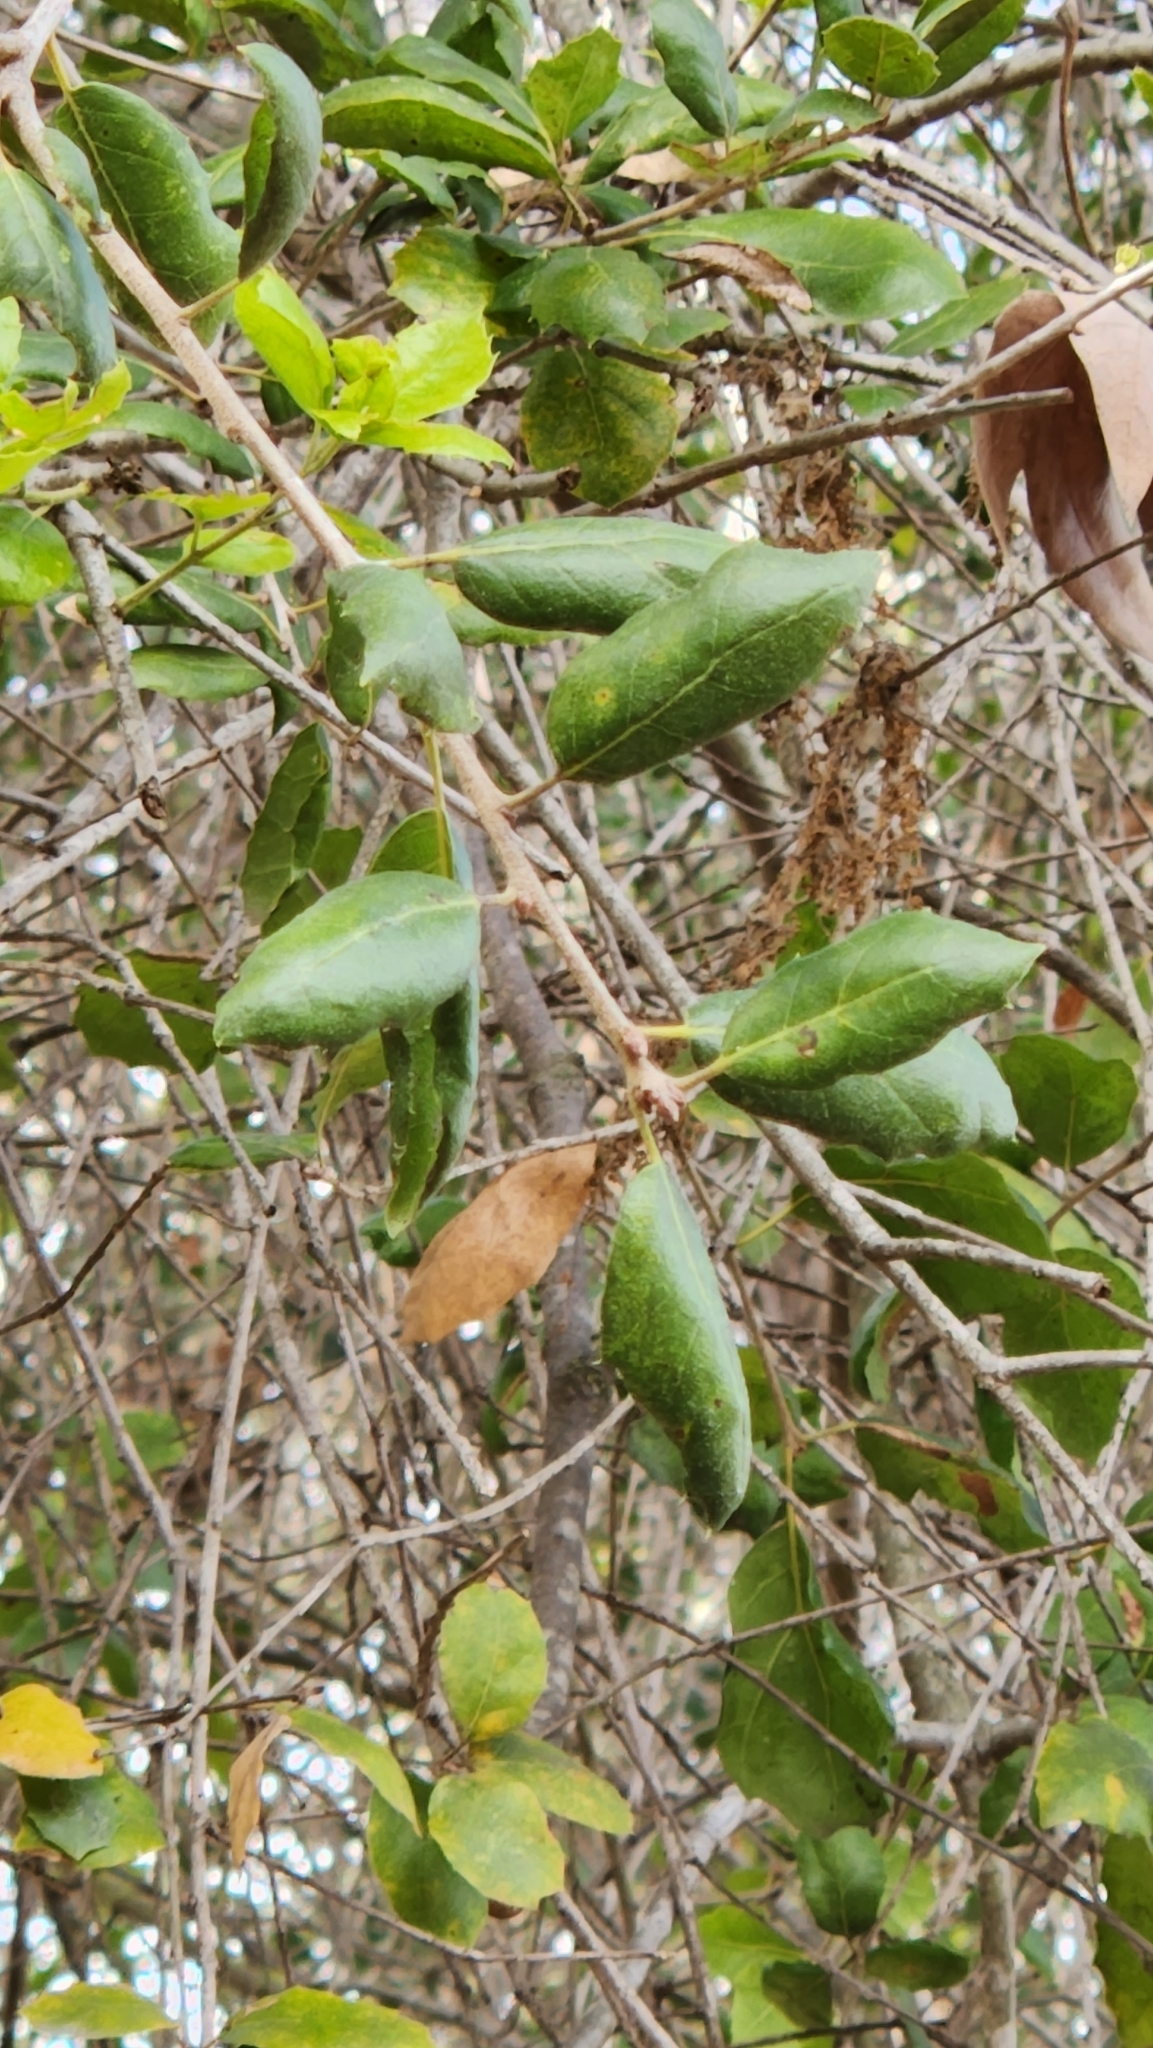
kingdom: Plantae
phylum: Tracheophyta
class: Magnoliopsida
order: Fagales
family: Fagaceae
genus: Quercus
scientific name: Quercus agrifolia
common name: California live oak
